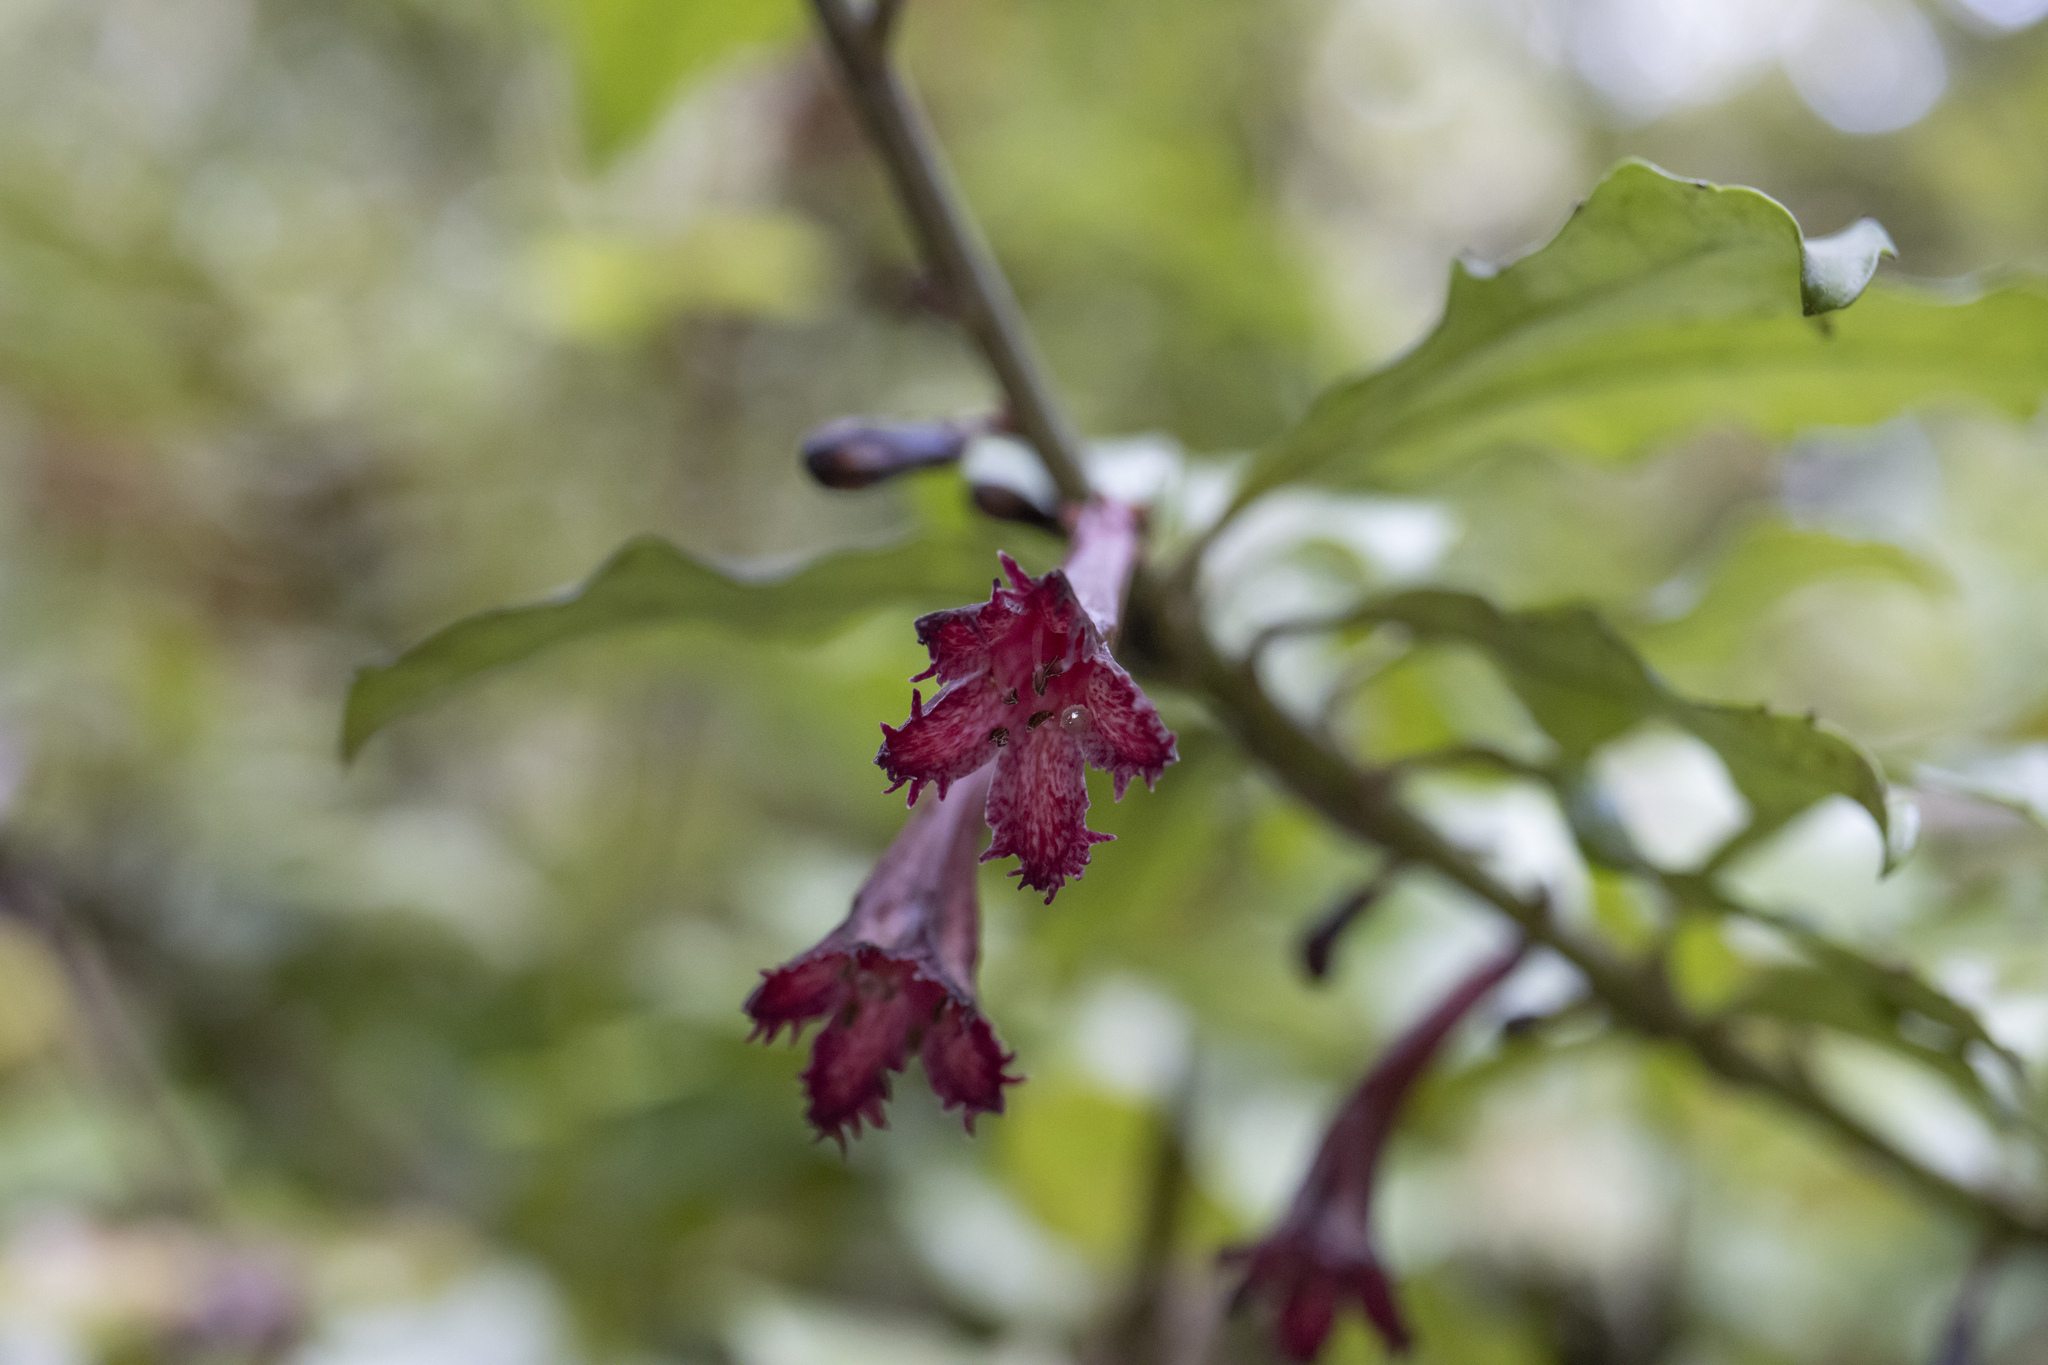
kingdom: Plantae
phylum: Tracheophyta
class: Magnoliopsida
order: Asterales
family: Alseuosmiaceae
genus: Alseuosmia
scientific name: Alseuosmia macrophylla
